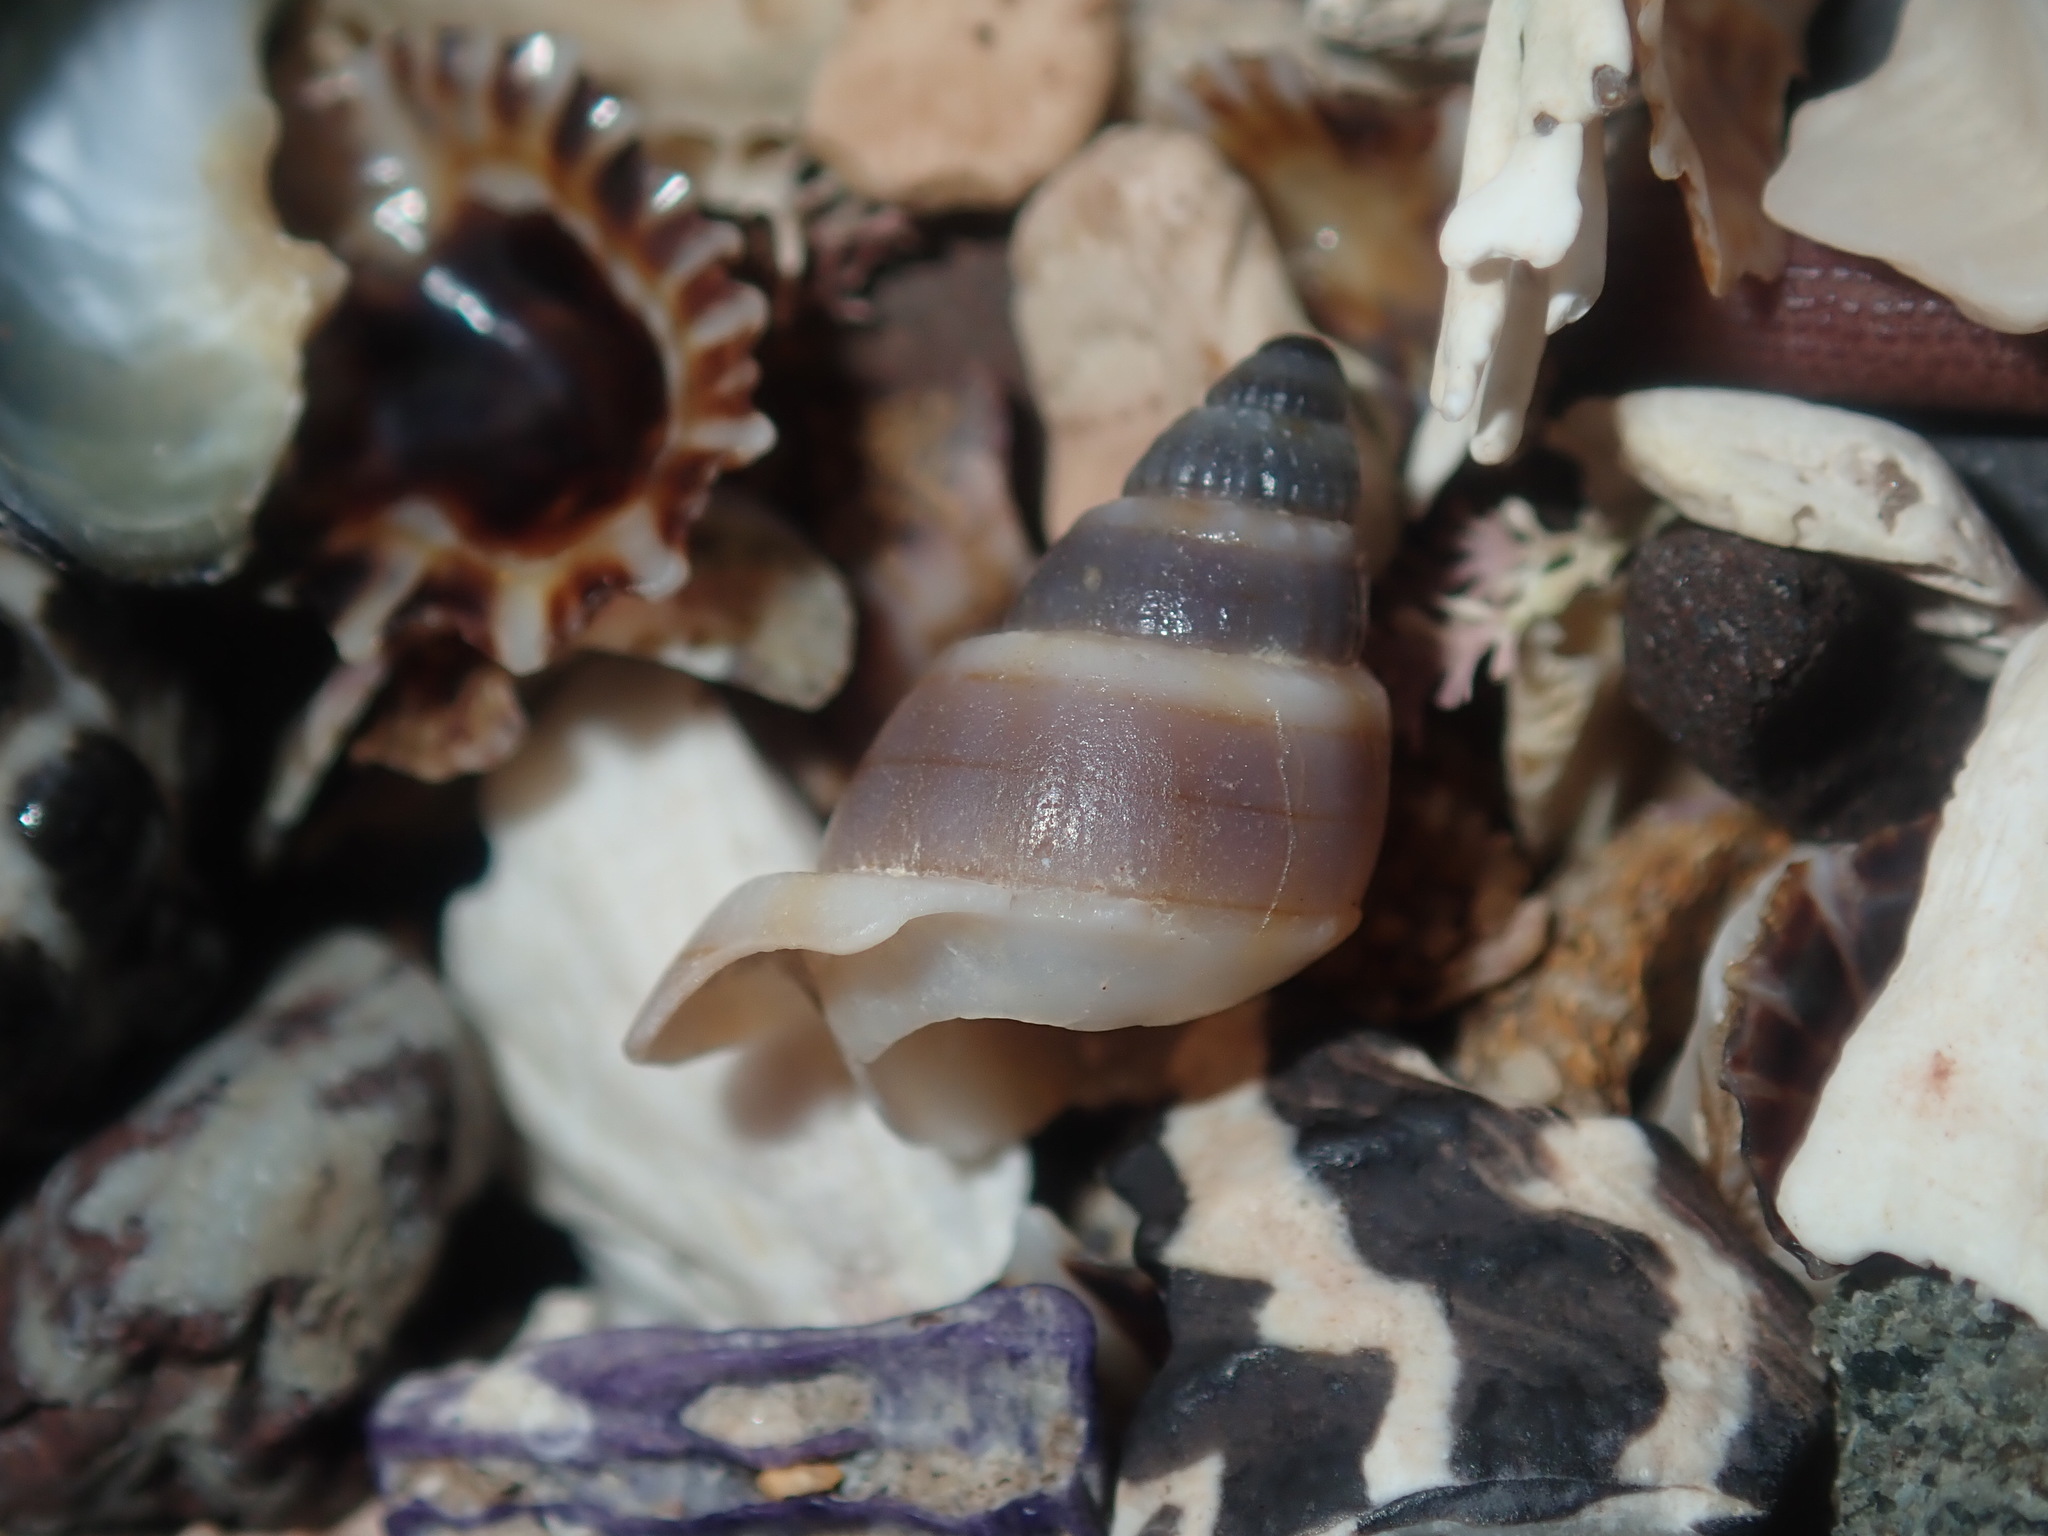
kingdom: Animalia
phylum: Mollusca
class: Gastropoda
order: Neogastropoda
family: Nassariidae
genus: Nassarius
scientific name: Nassarius particeps
